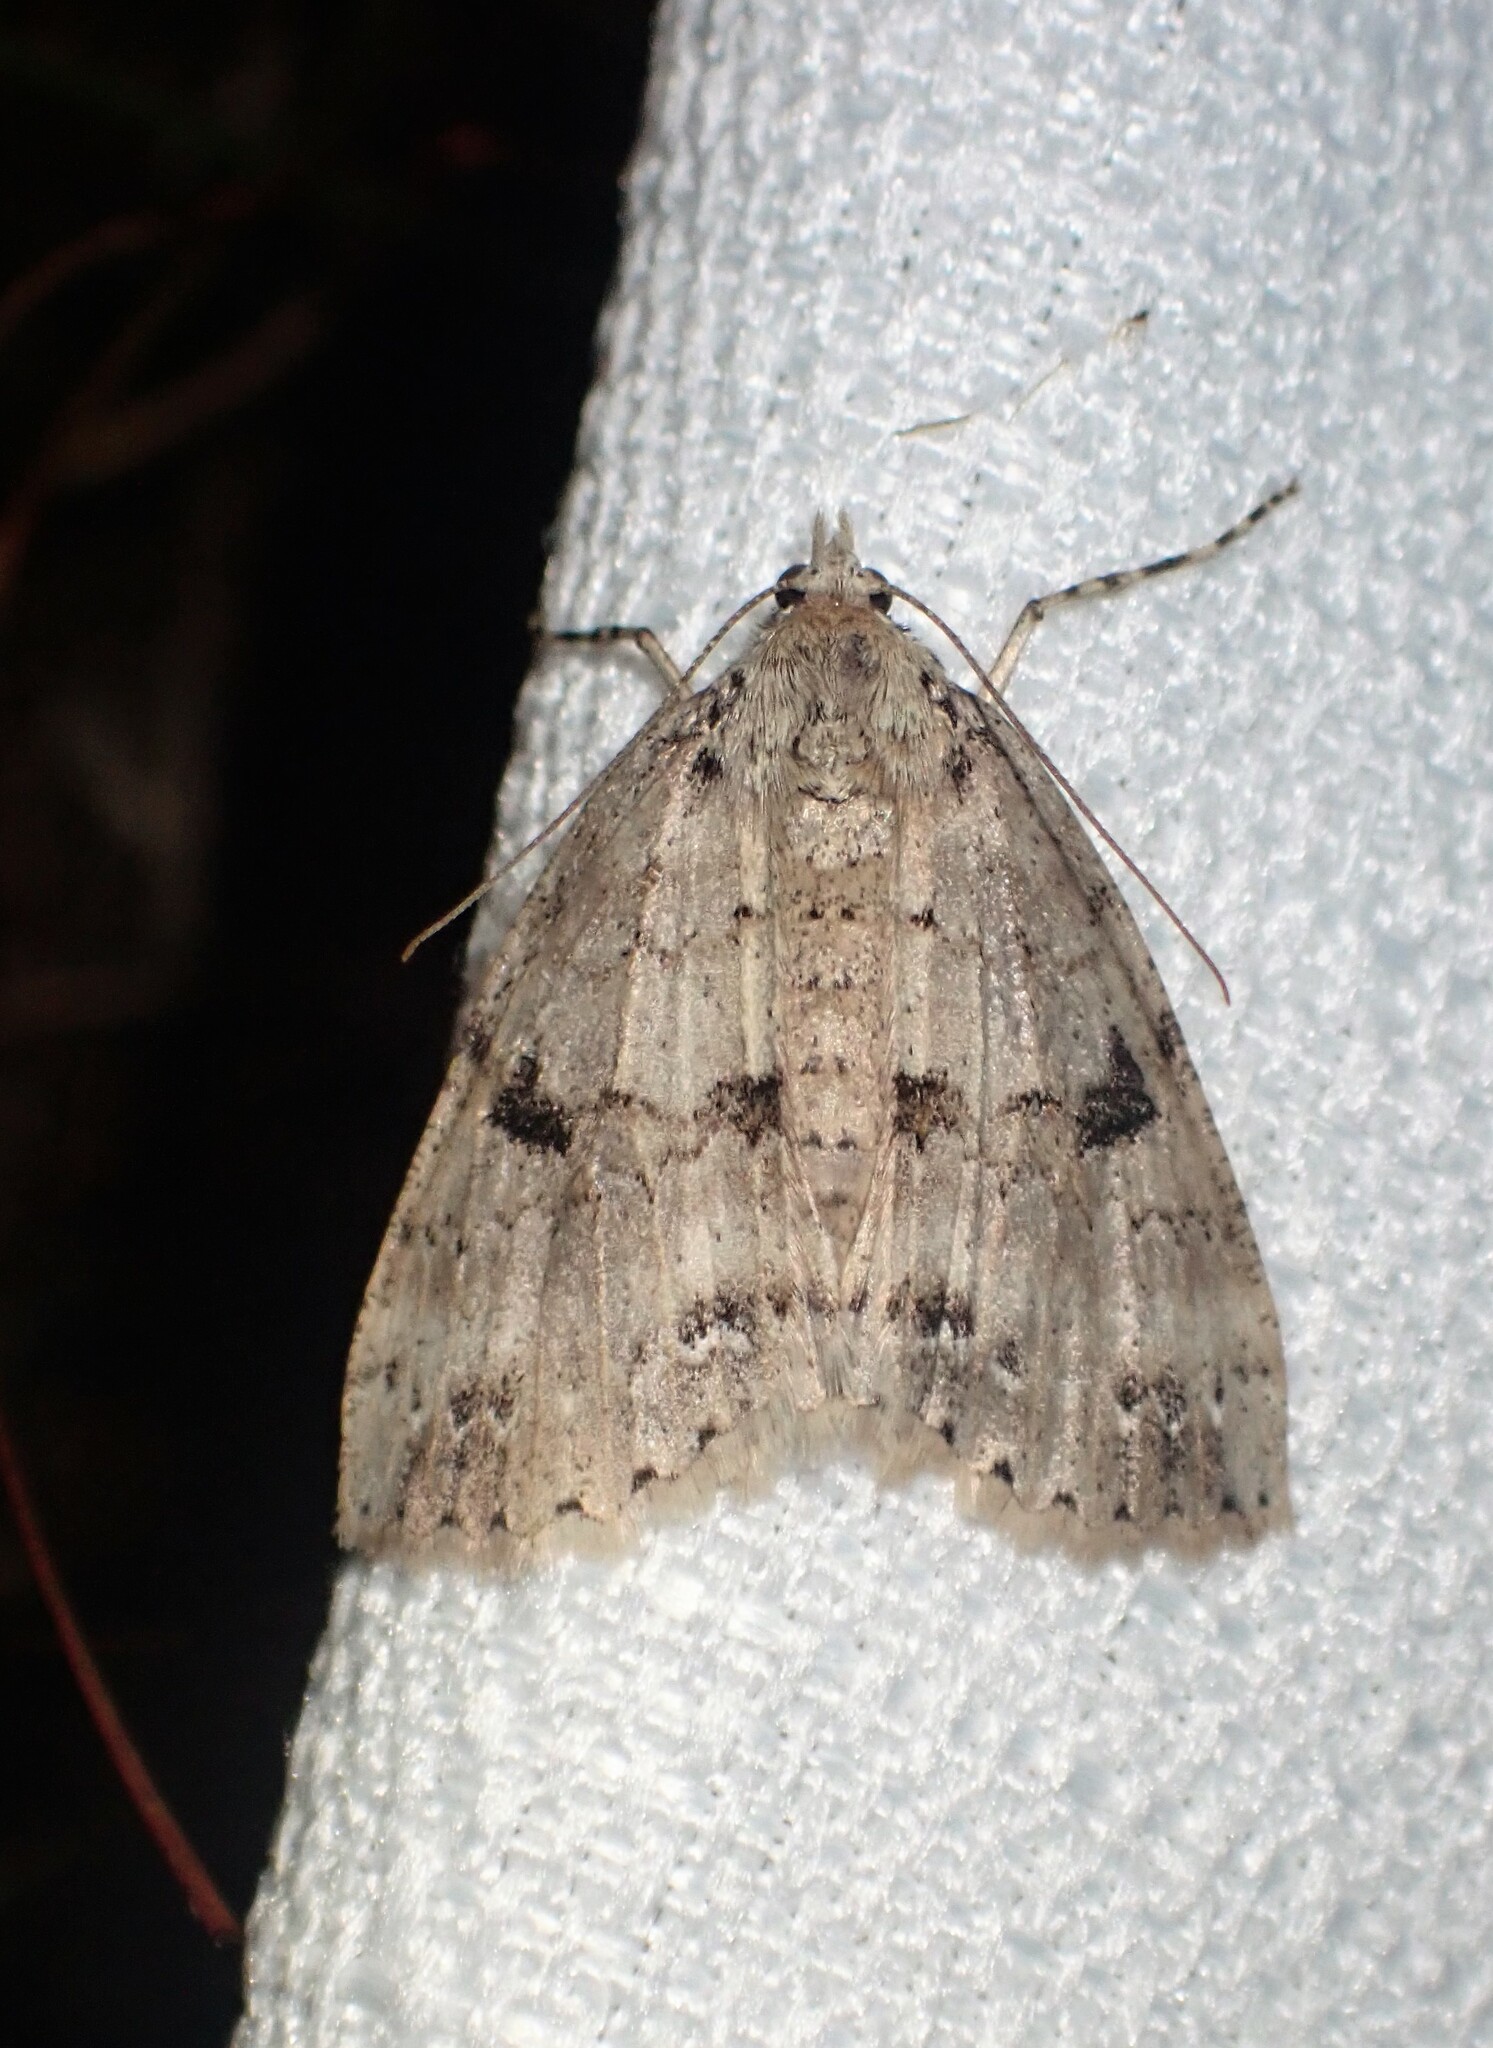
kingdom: Animalia
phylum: Arthropoda
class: Insecta
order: Lepidoptera
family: Geometridae
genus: Ascotis
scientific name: Ascotis fortunata
